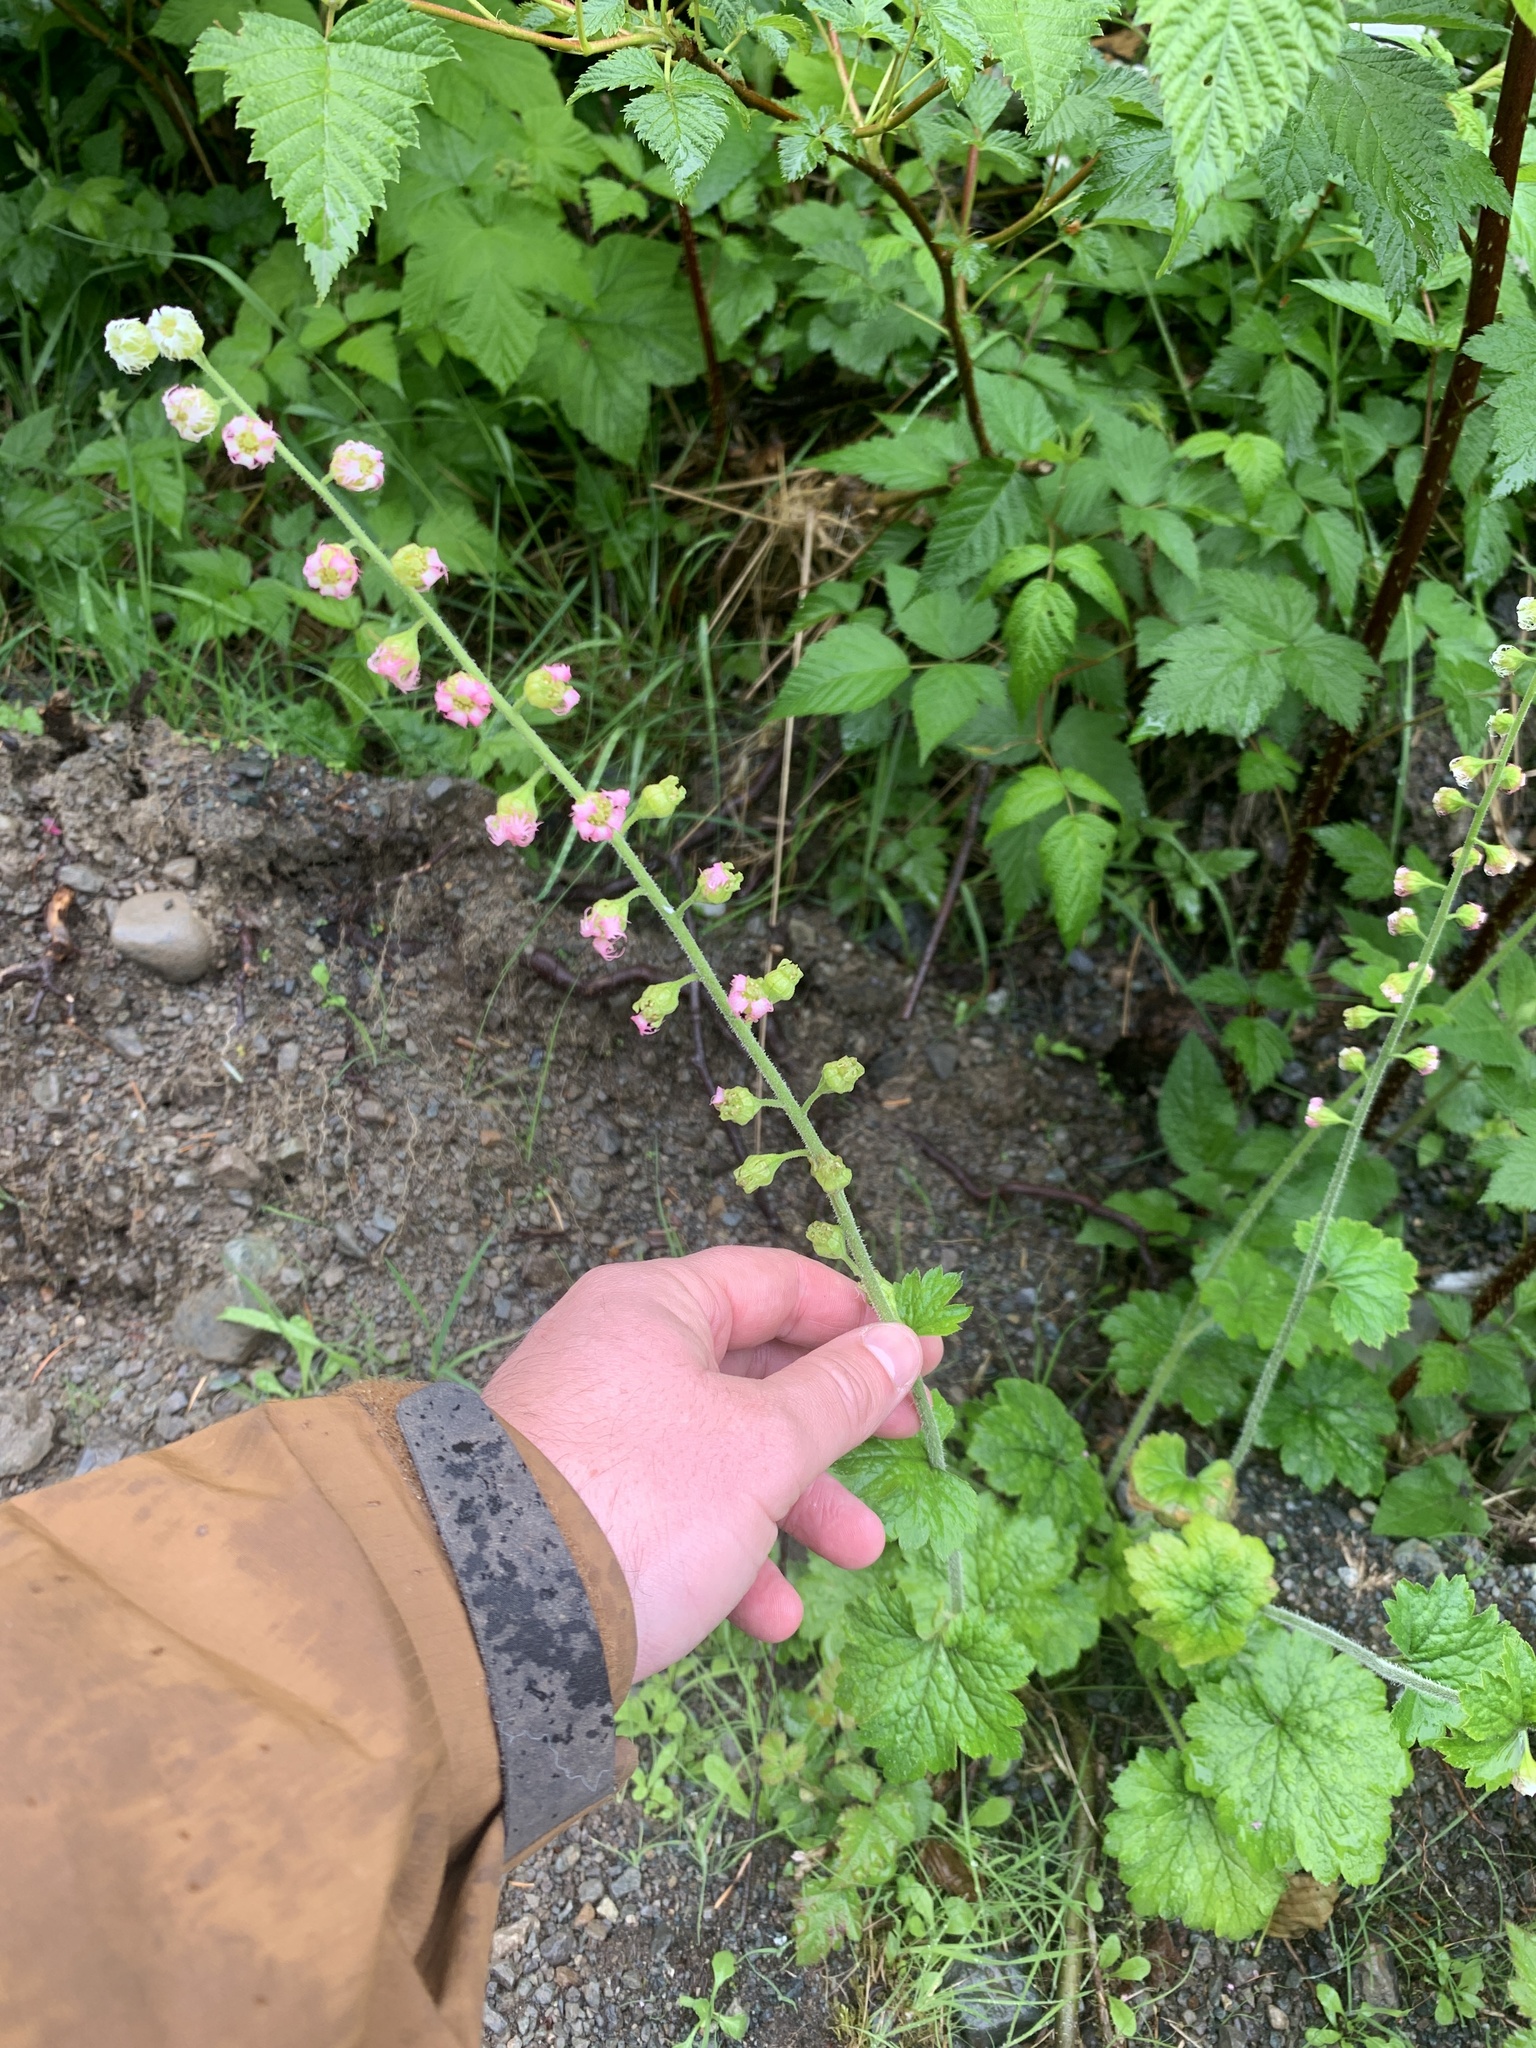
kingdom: Plantae
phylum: Tracheophyta
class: Magnoliopsida
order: Saxifragales
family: Saxifragaceae
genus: Tellima
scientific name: Tellima grandiflora
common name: Fringecups
